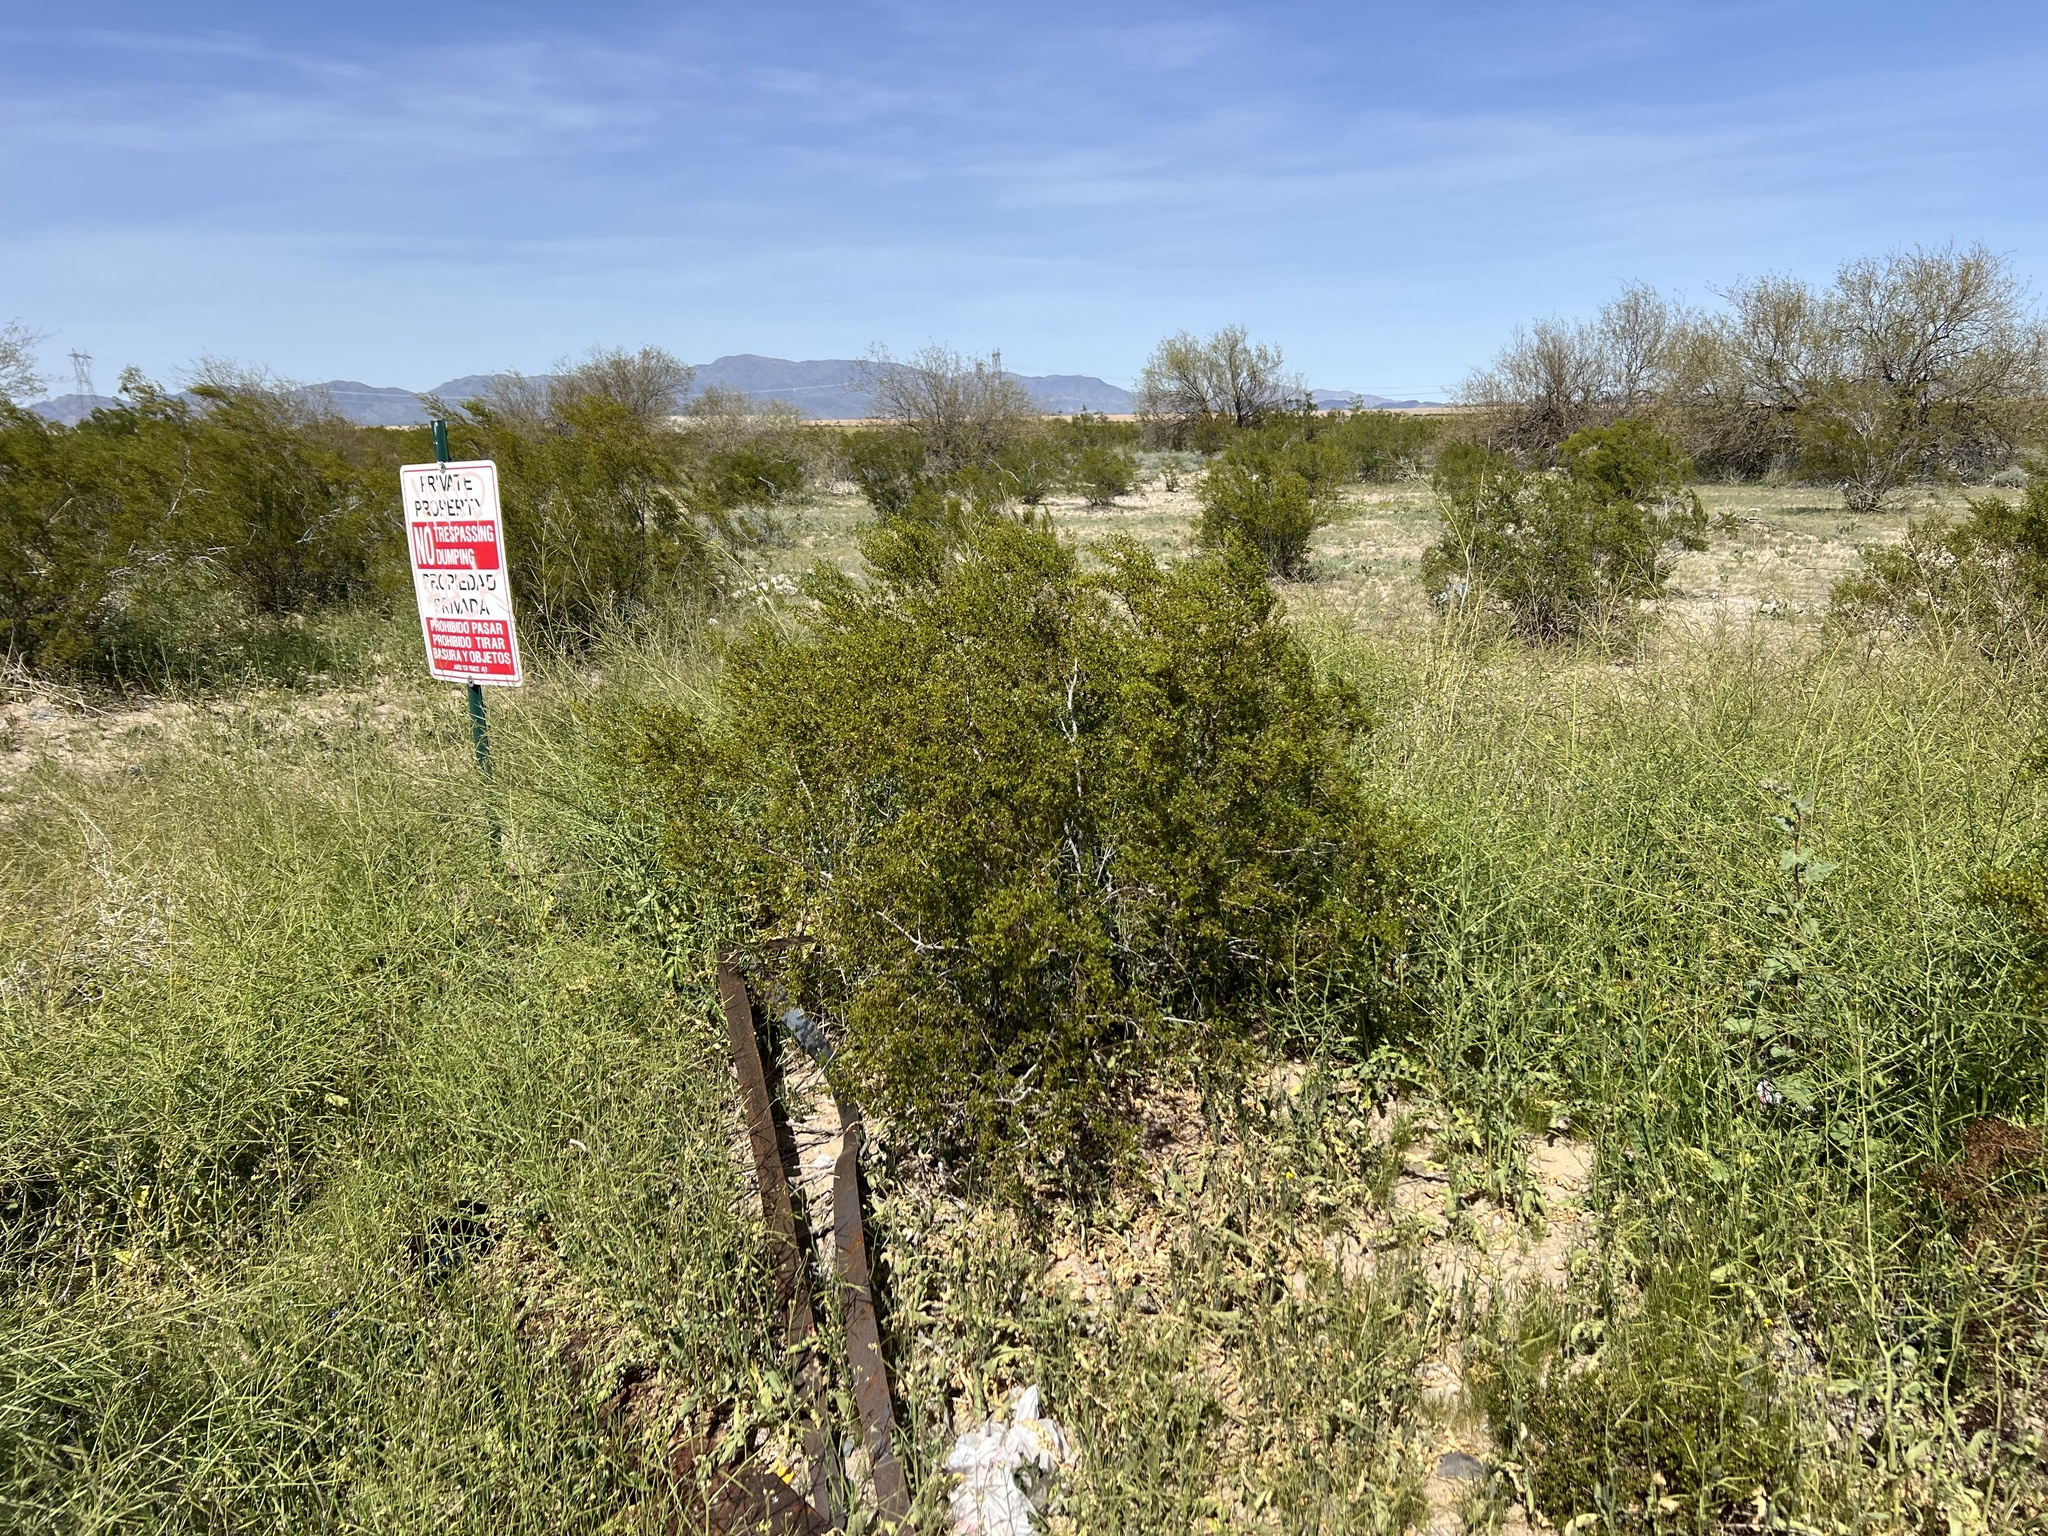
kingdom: Plantae
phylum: Tracheophyta
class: Magnoliopsida
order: Zygophyllales
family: Zygophyllaceae
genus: Larrea
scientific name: Larrea tridentata
